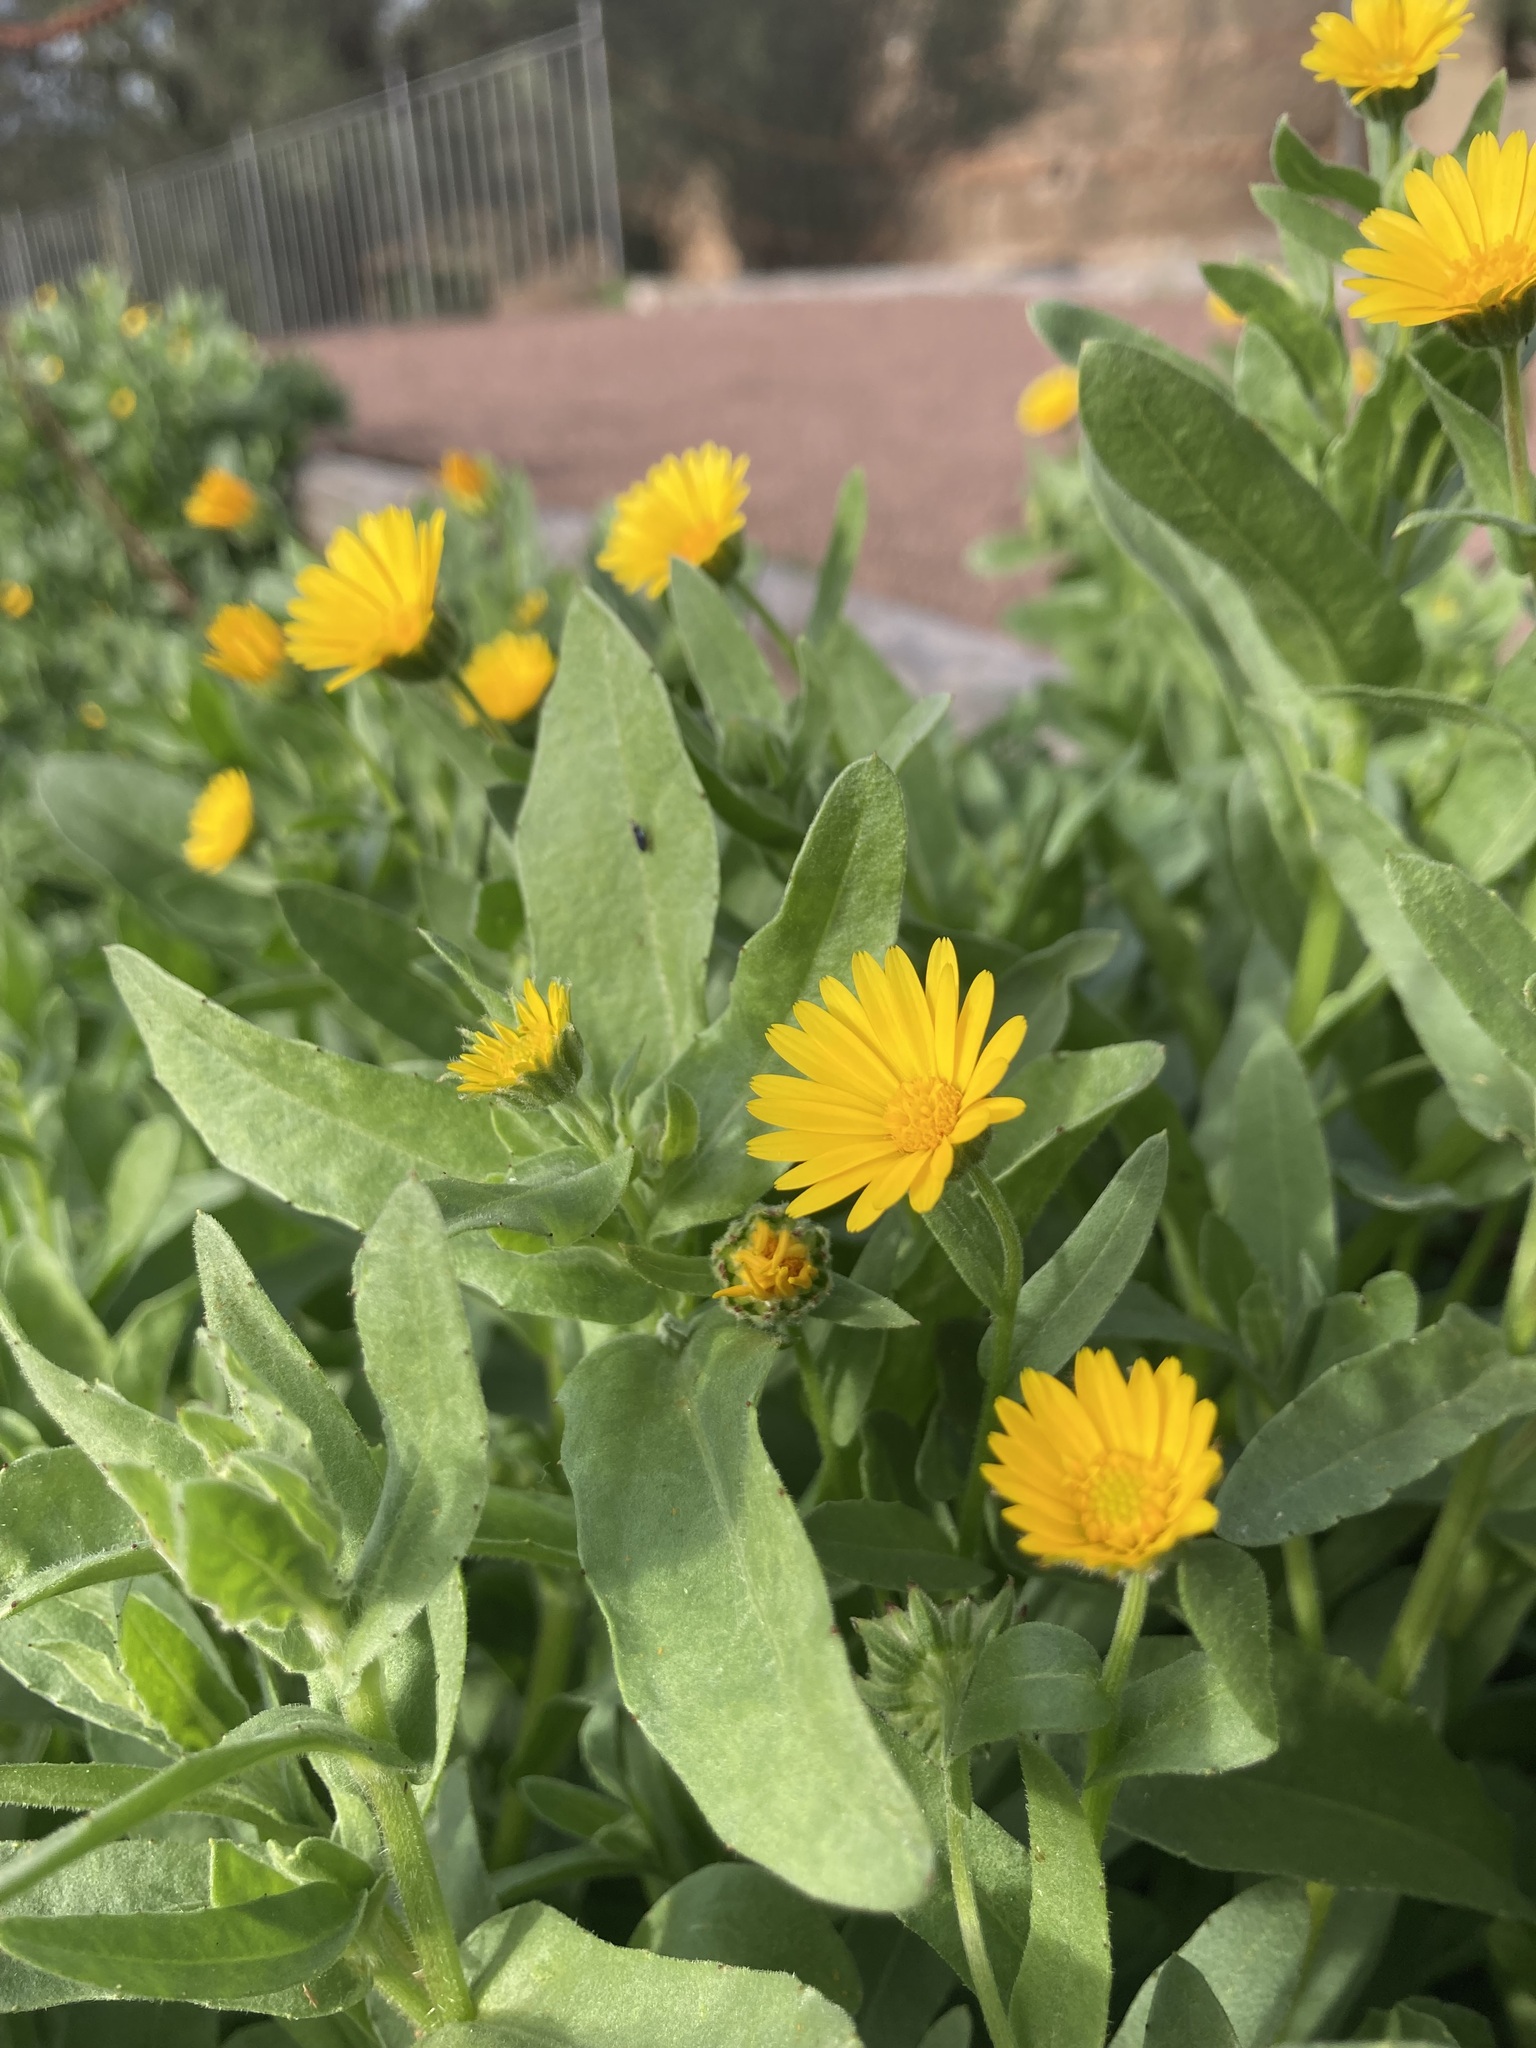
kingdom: Plantae
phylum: Tracheophyta
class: Magnoliopsida
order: Asterales
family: Asteraceae
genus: Calendula
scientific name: Calendula arvensis
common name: Field marigold
